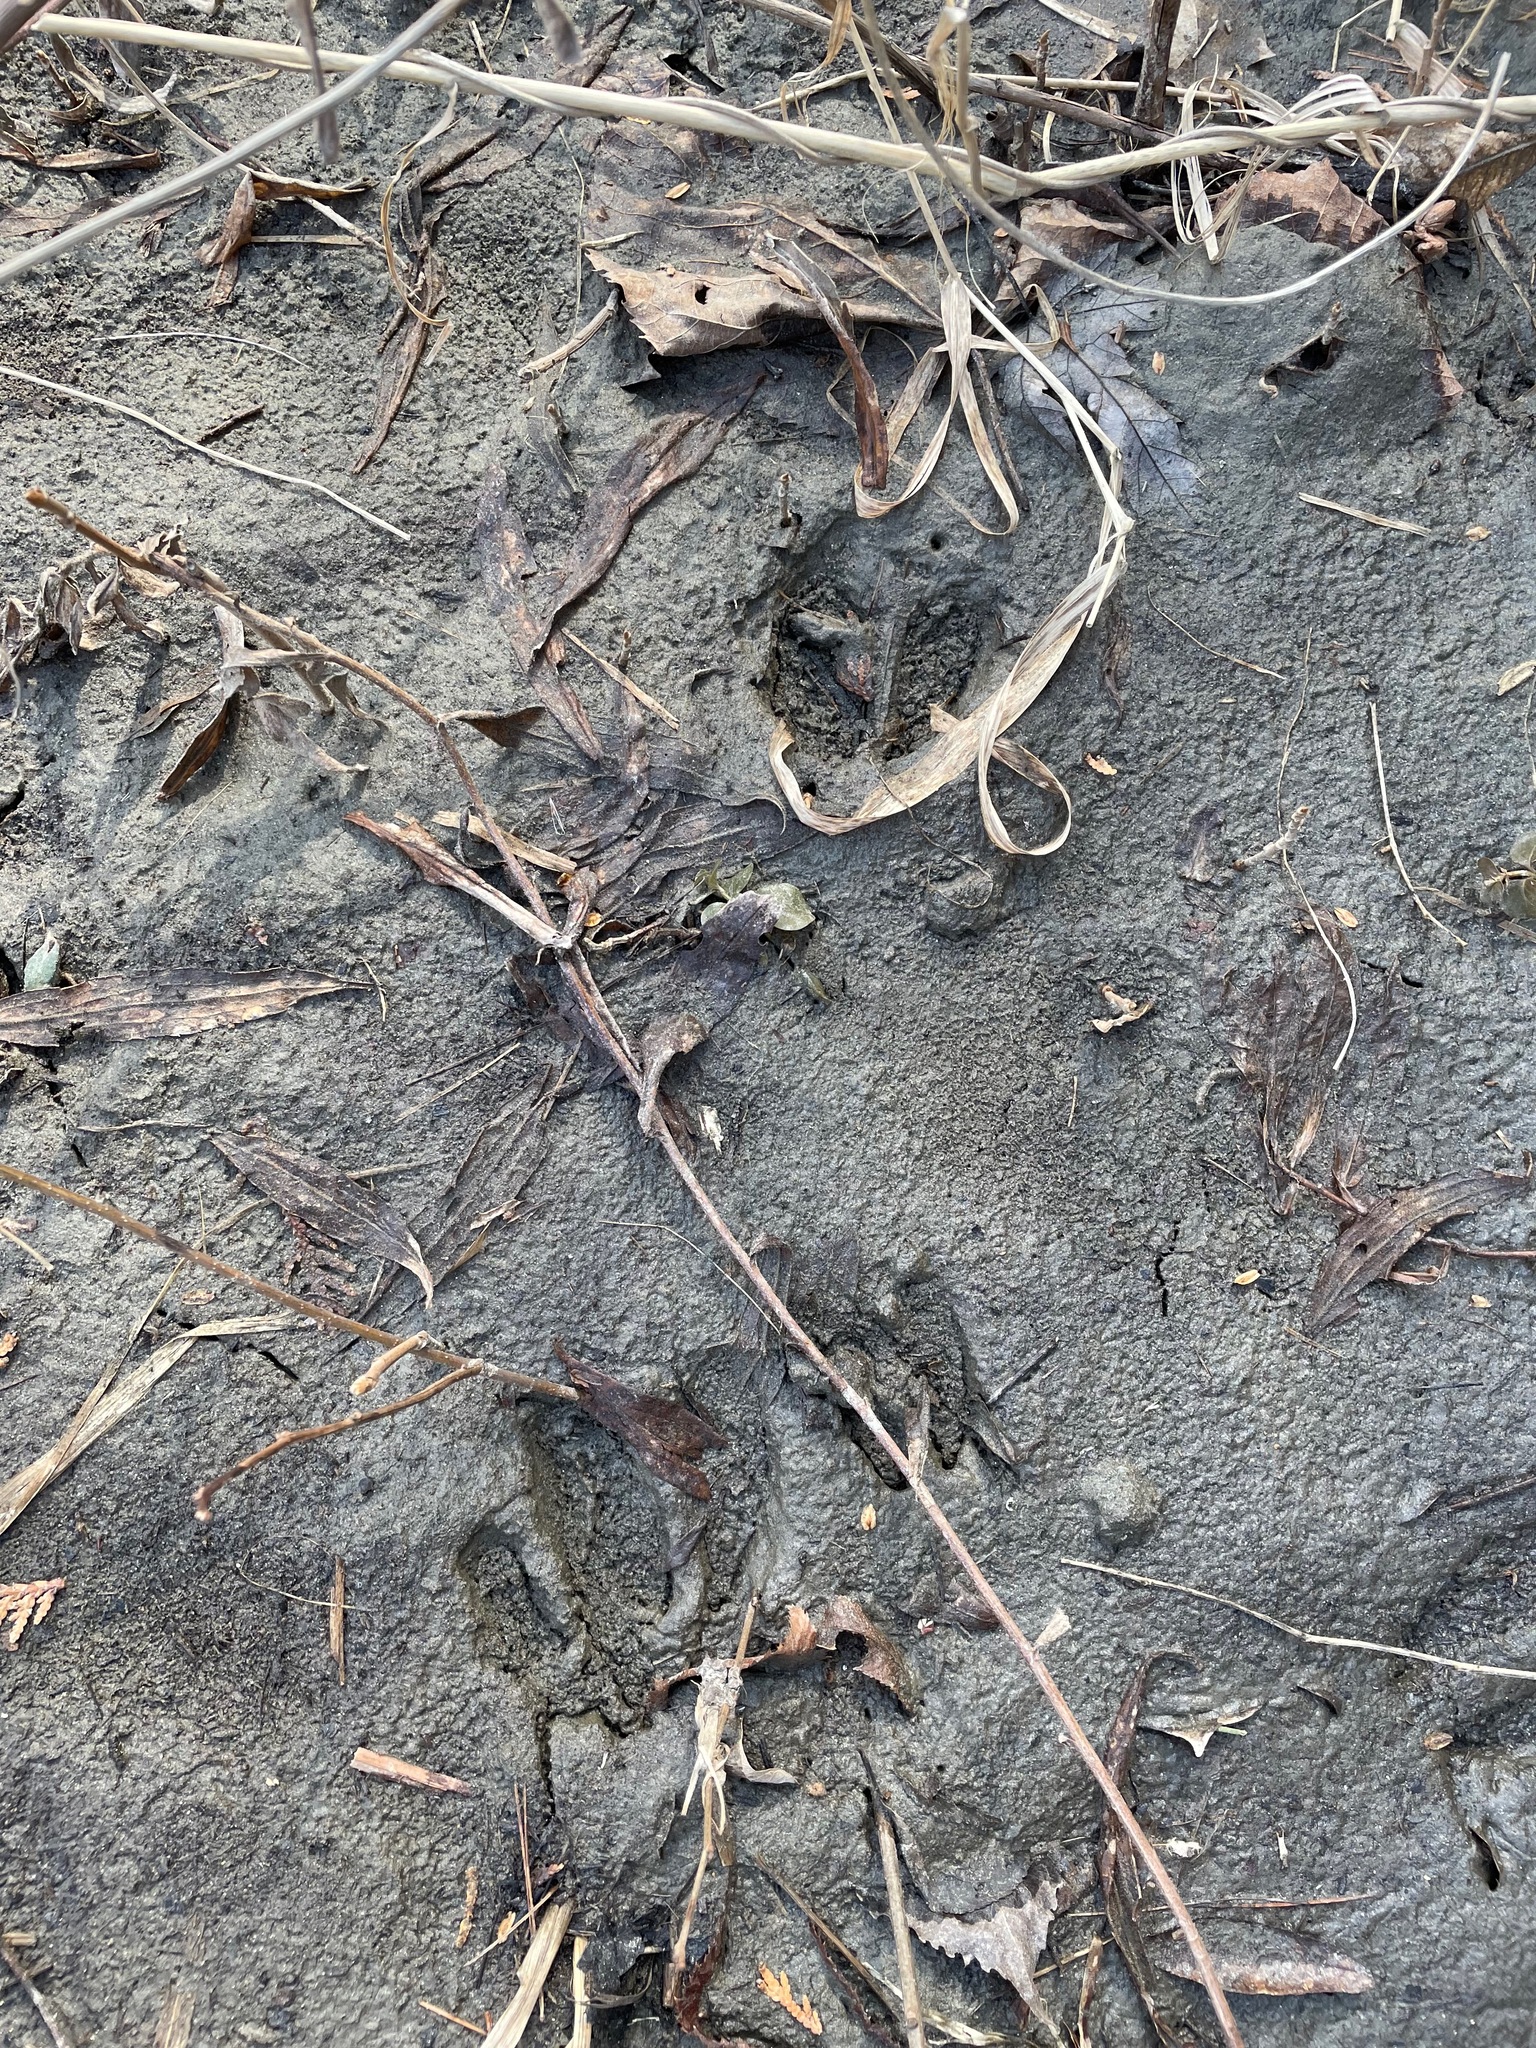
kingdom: Animalia
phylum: Chordata
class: Mammalia
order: Artiodactyla
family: Cervidae
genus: Odocoileus
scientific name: Odocoileus virginianus
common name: White-tailed deer
